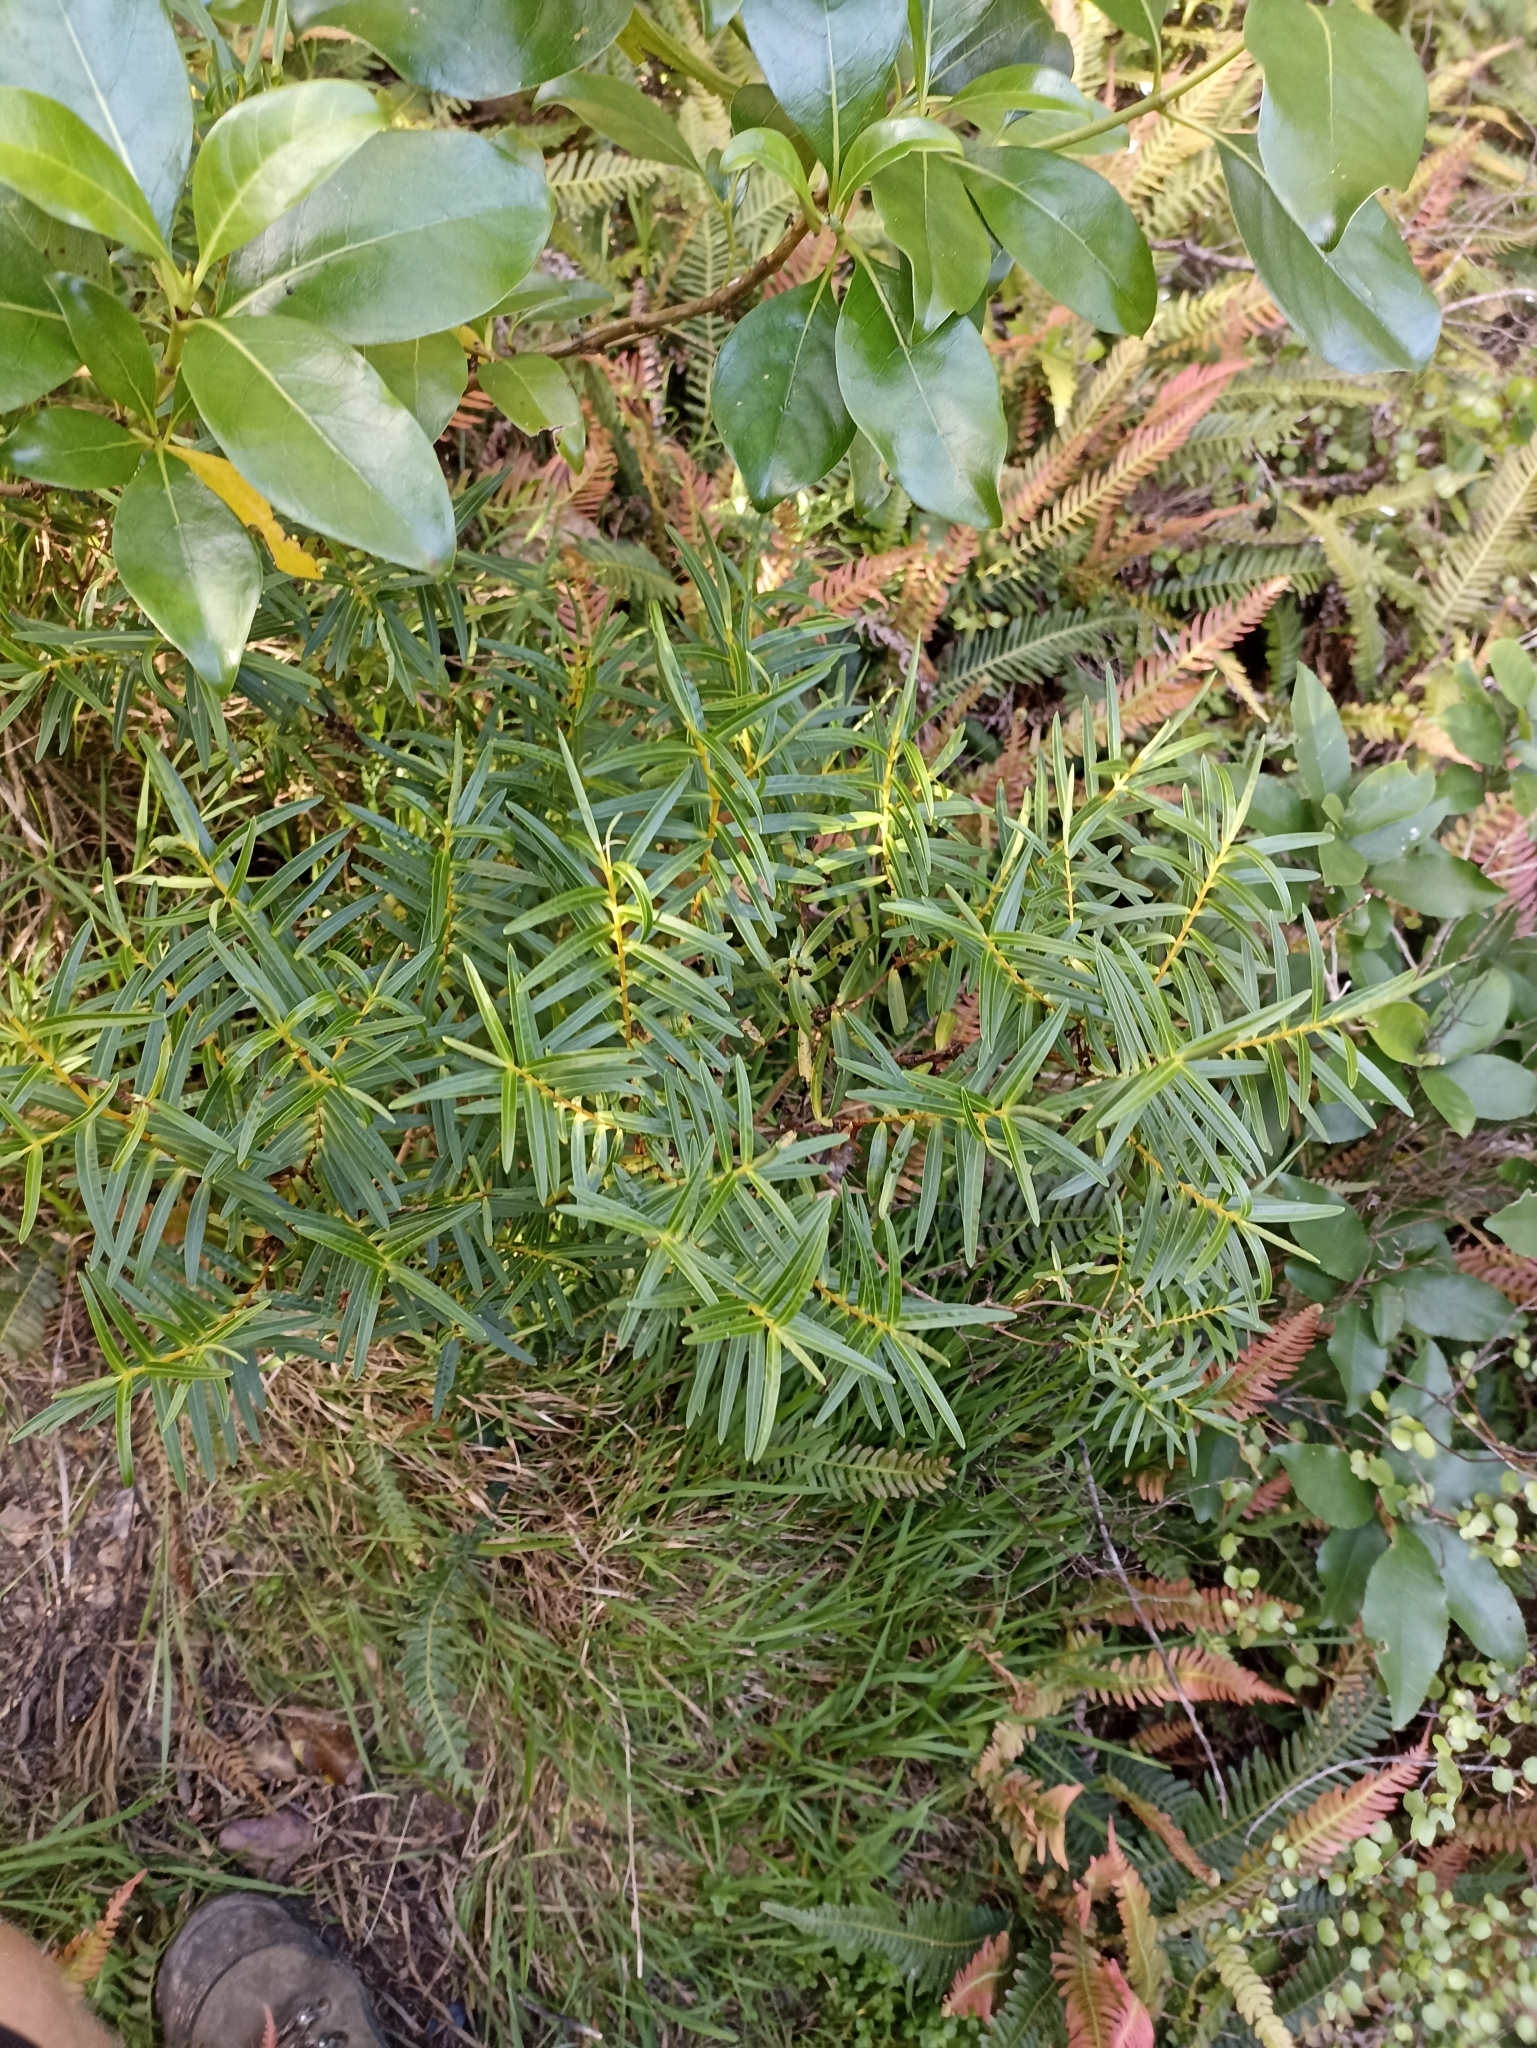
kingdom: Plantae
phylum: Tracheophyta
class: Magnoliopsida
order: Lamiales
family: Plantaginaceae
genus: Veronica
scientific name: Veronica parviflora
